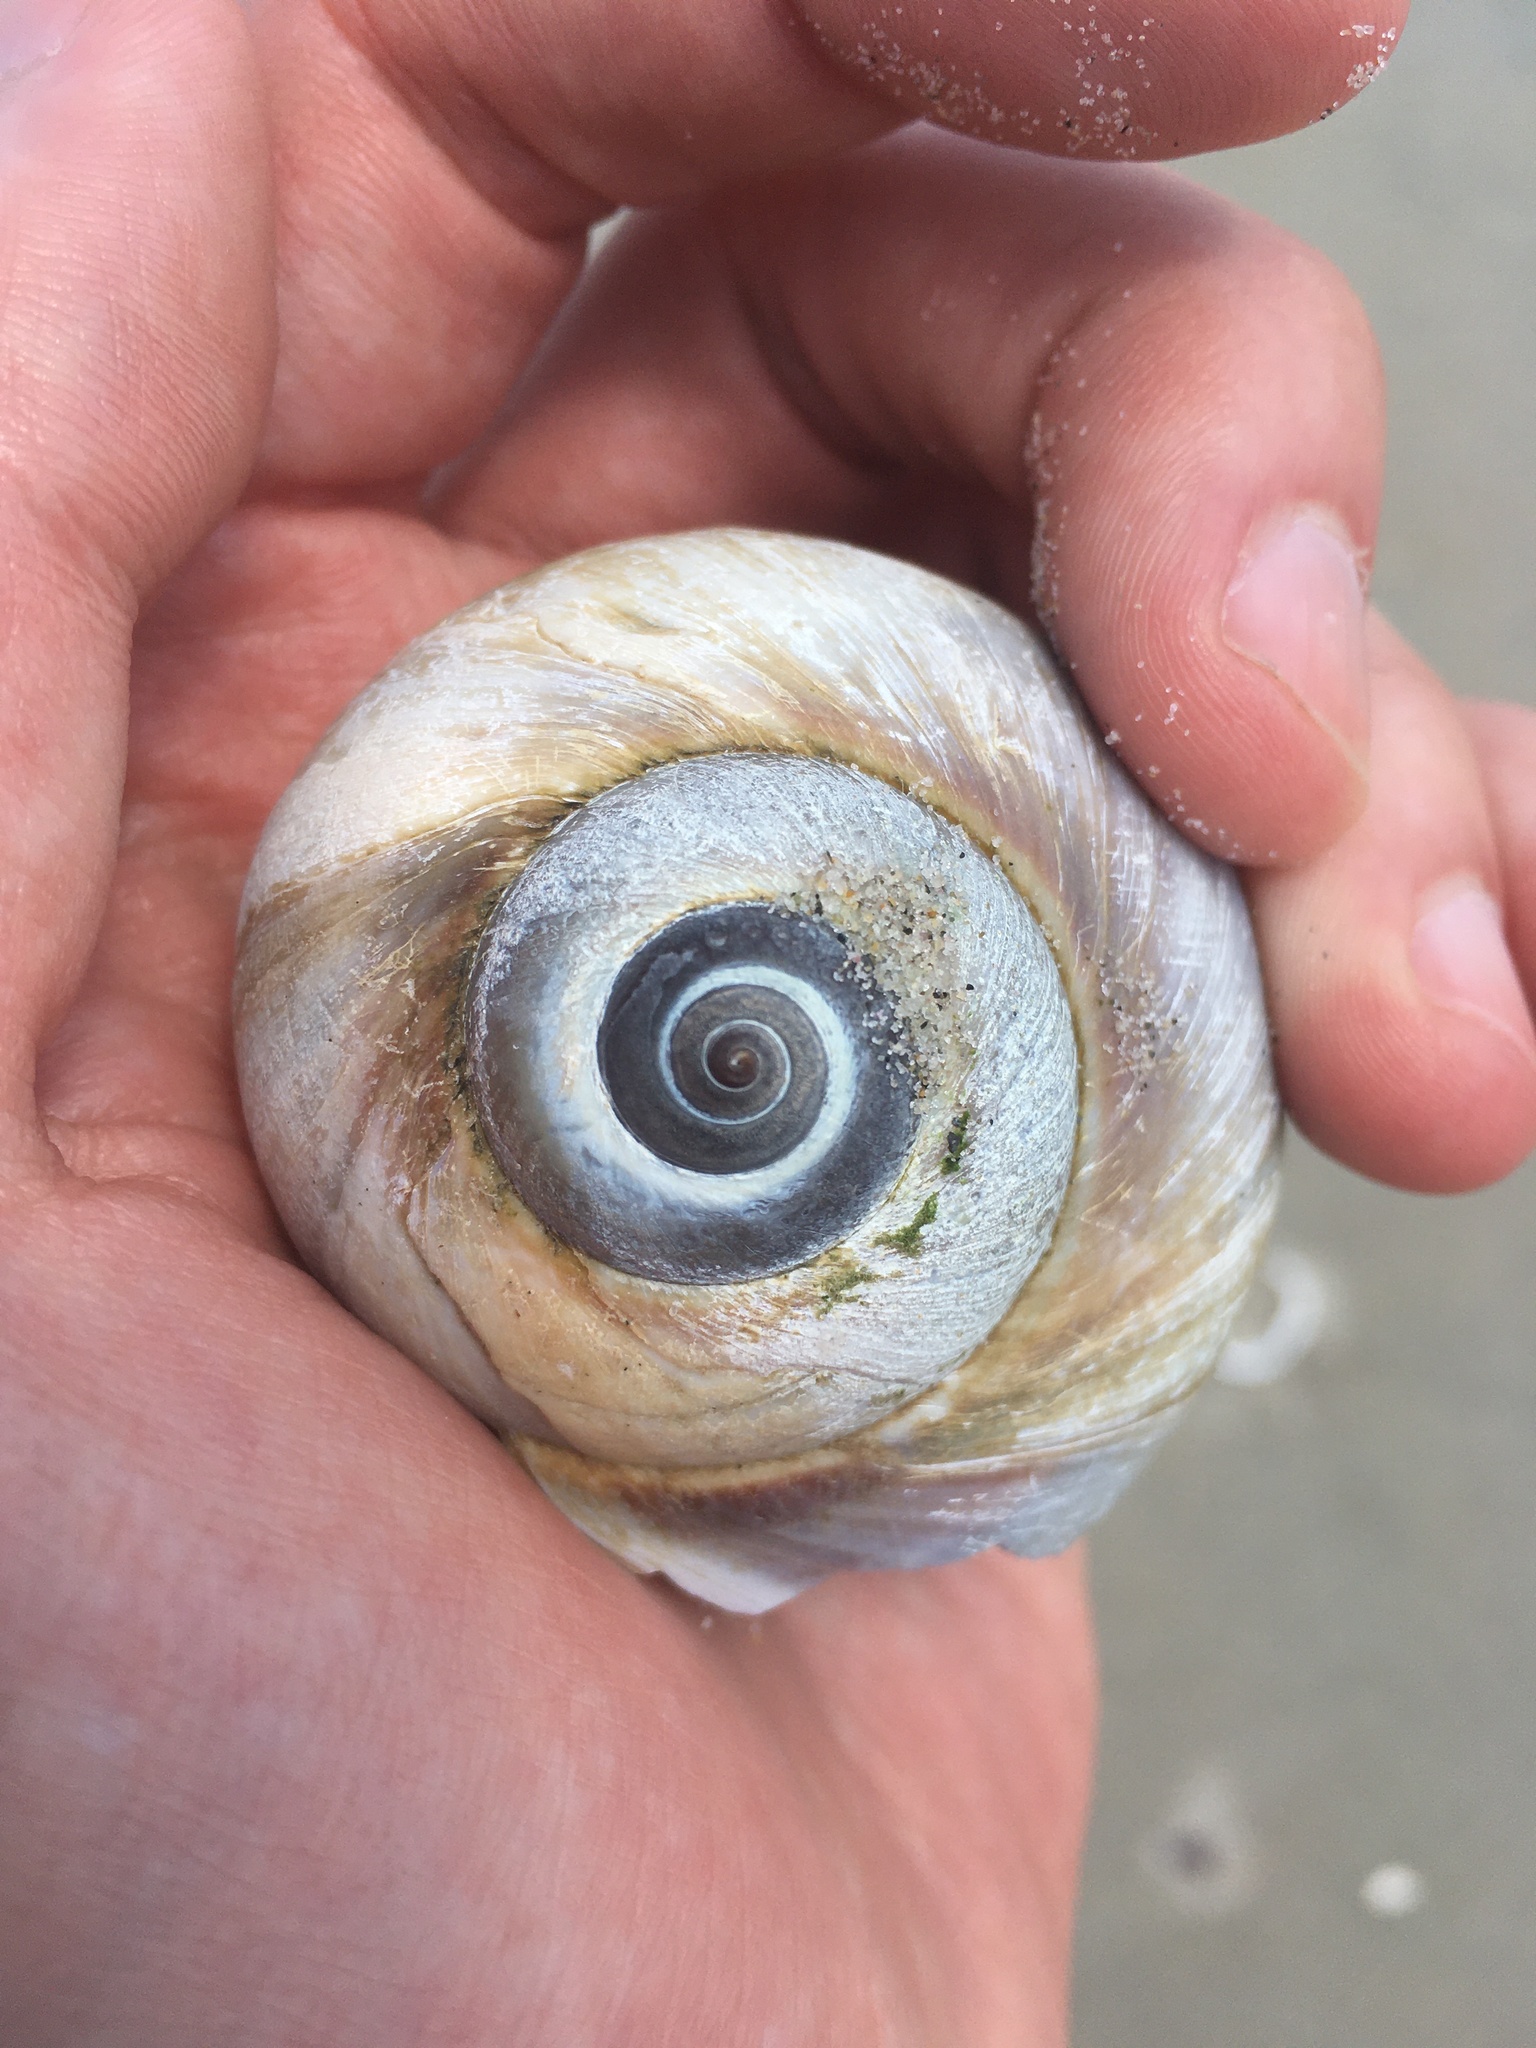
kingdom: Animalia
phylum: Mollusca
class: Gastropoda
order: Littorinimorpha
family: Naticidae
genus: Euspira
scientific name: Euspira heros
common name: Common northern moonsnail
